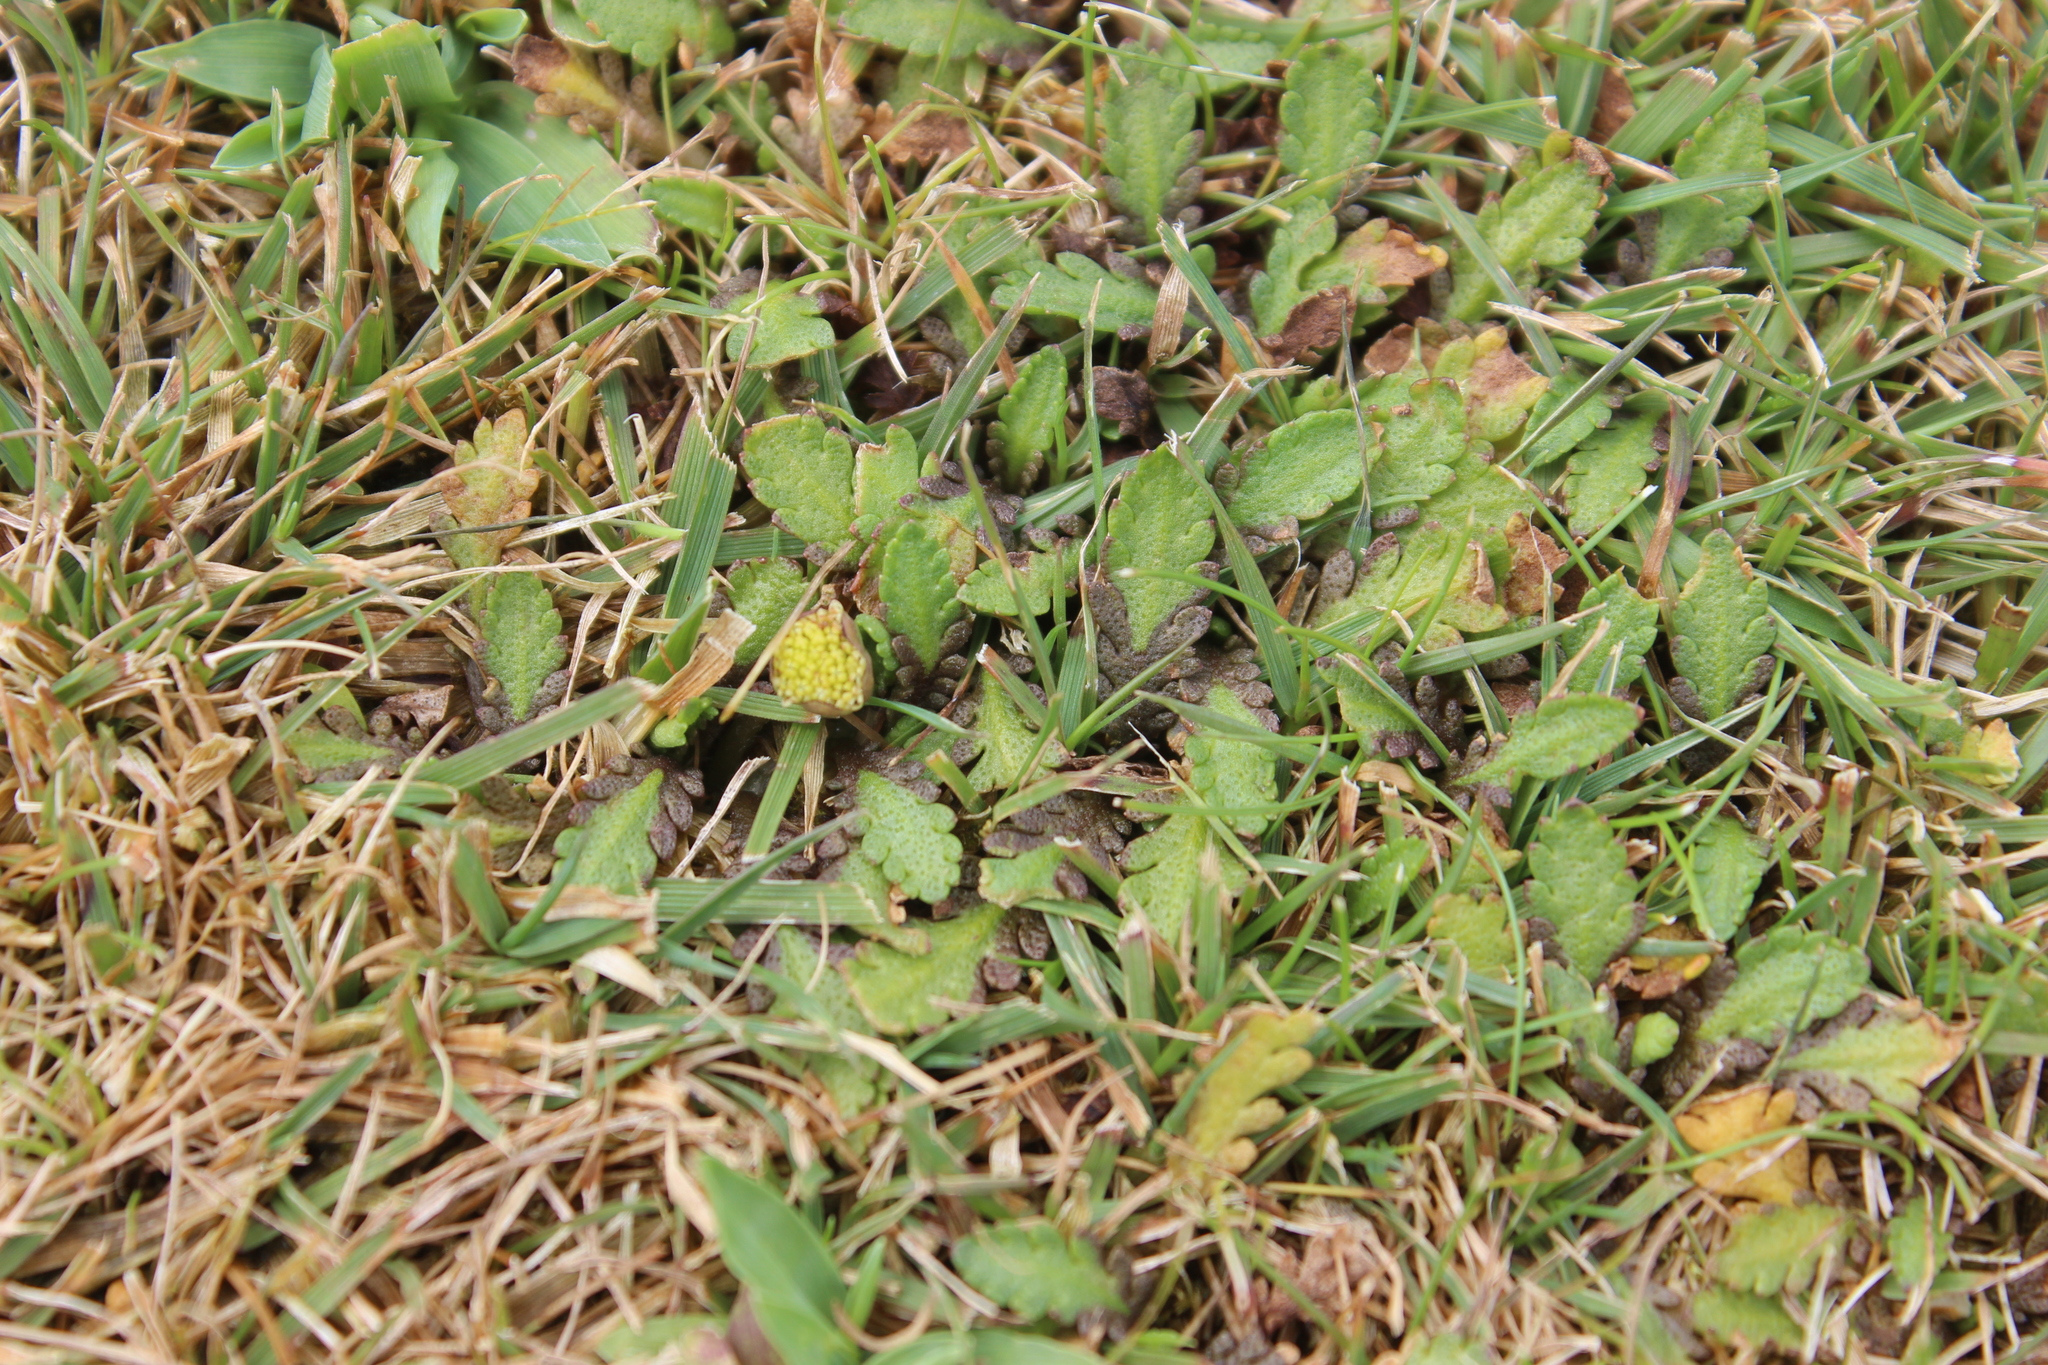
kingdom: Plantae
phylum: Tracheophyta
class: Magnoliopsida
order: Asterales
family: Asteraceae
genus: Leptinella
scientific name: Leptinella dioica
